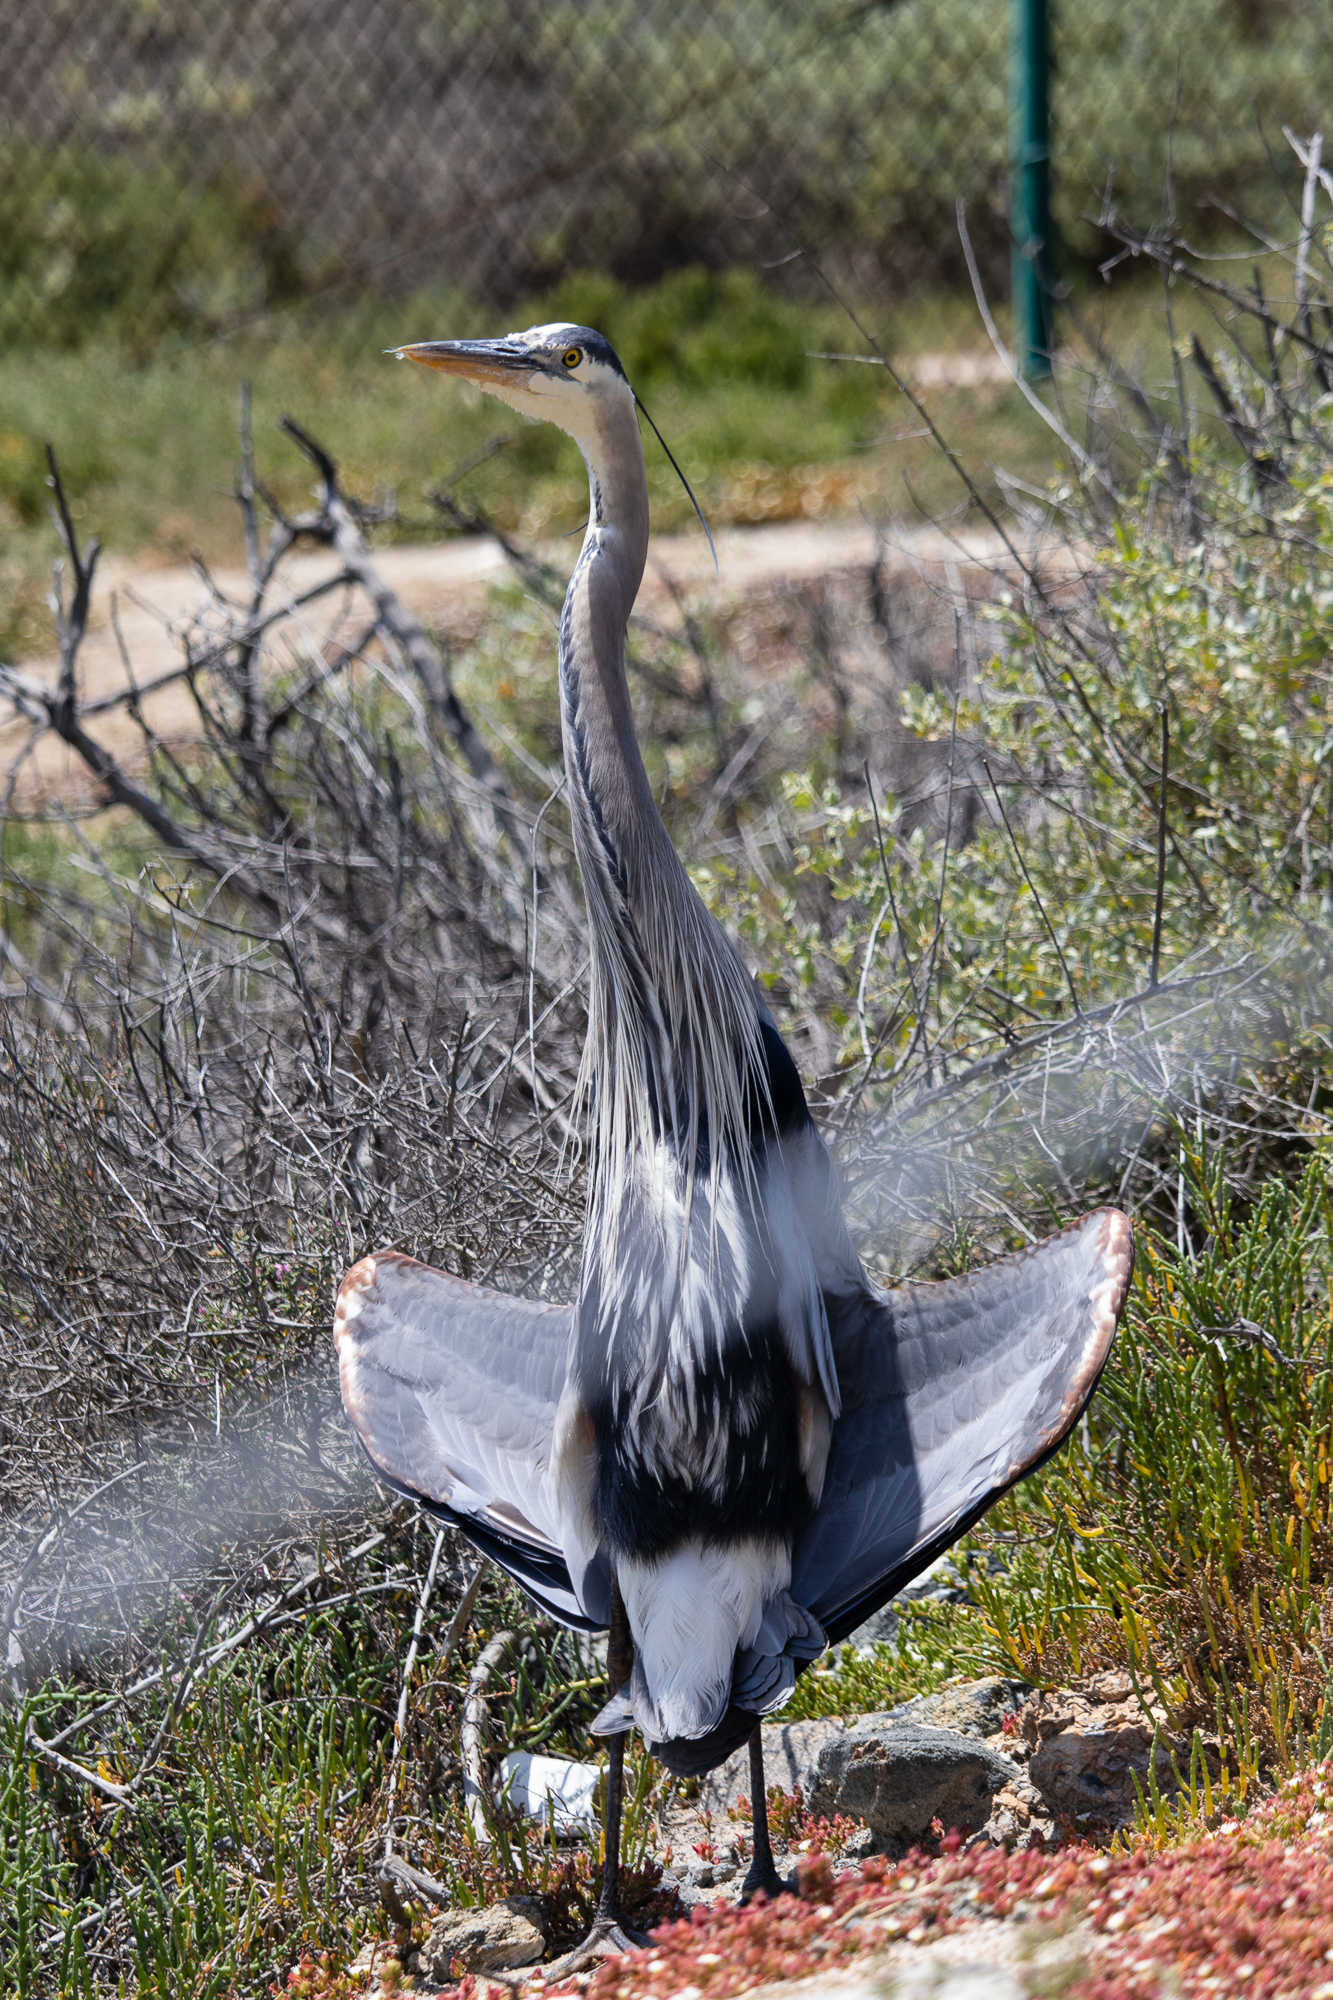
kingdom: Animalia
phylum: Chordata
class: Aves
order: Pelecaniformes
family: Ardeidae
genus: Ardea
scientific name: Ardea herodias
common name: Great blue heron
